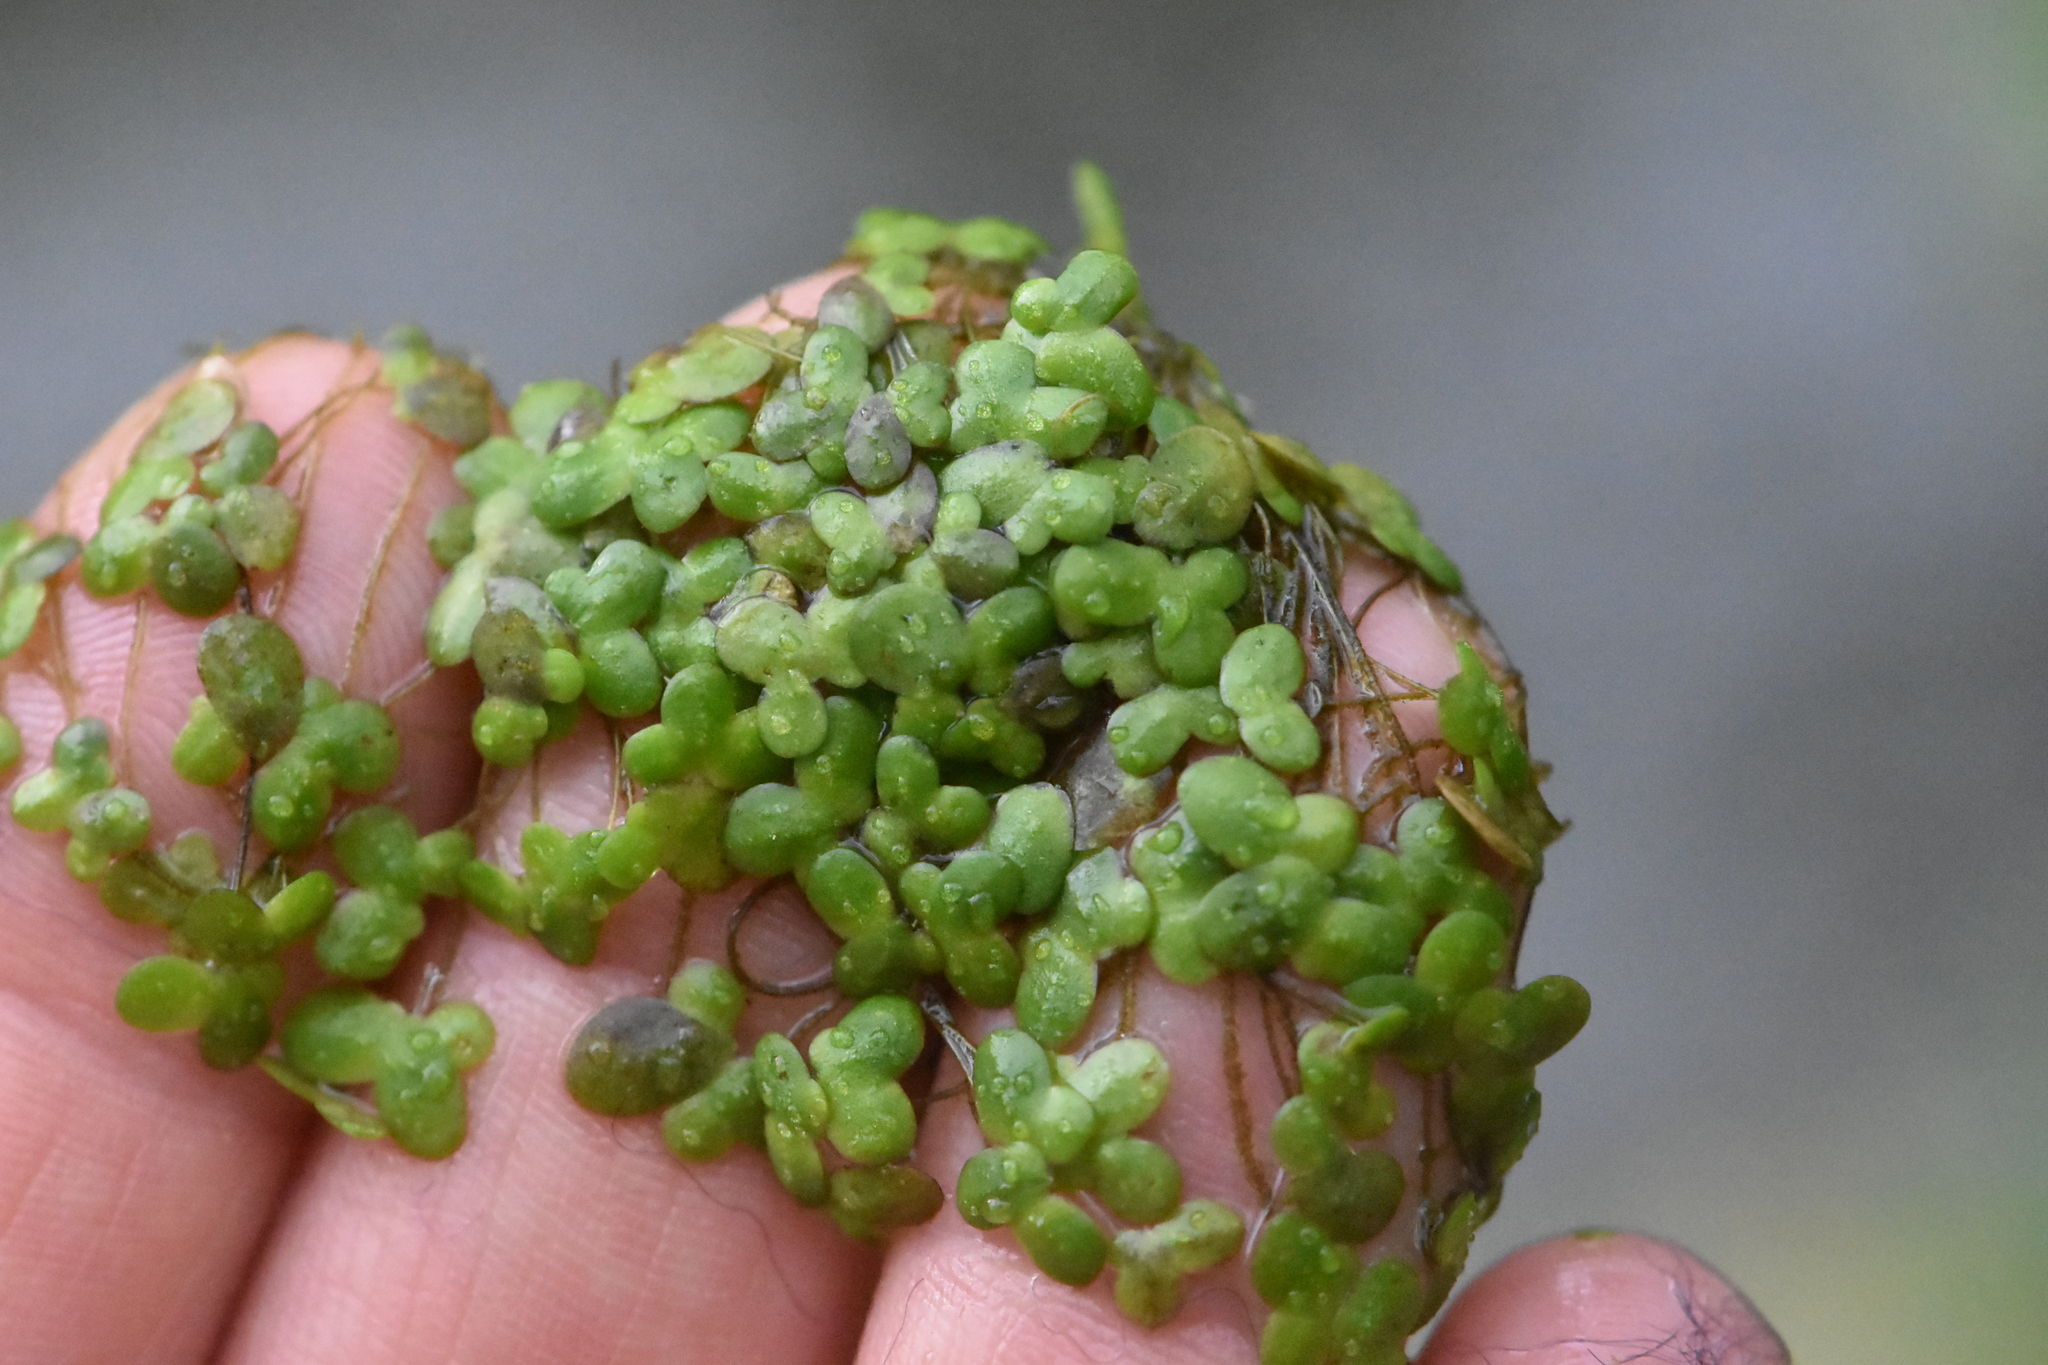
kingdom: Plantae
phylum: Tracheophyta
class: Liliopsida
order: Alismatales
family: Araceae
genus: Lemna
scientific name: Lemna turionifera
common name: Perennial duckweed
